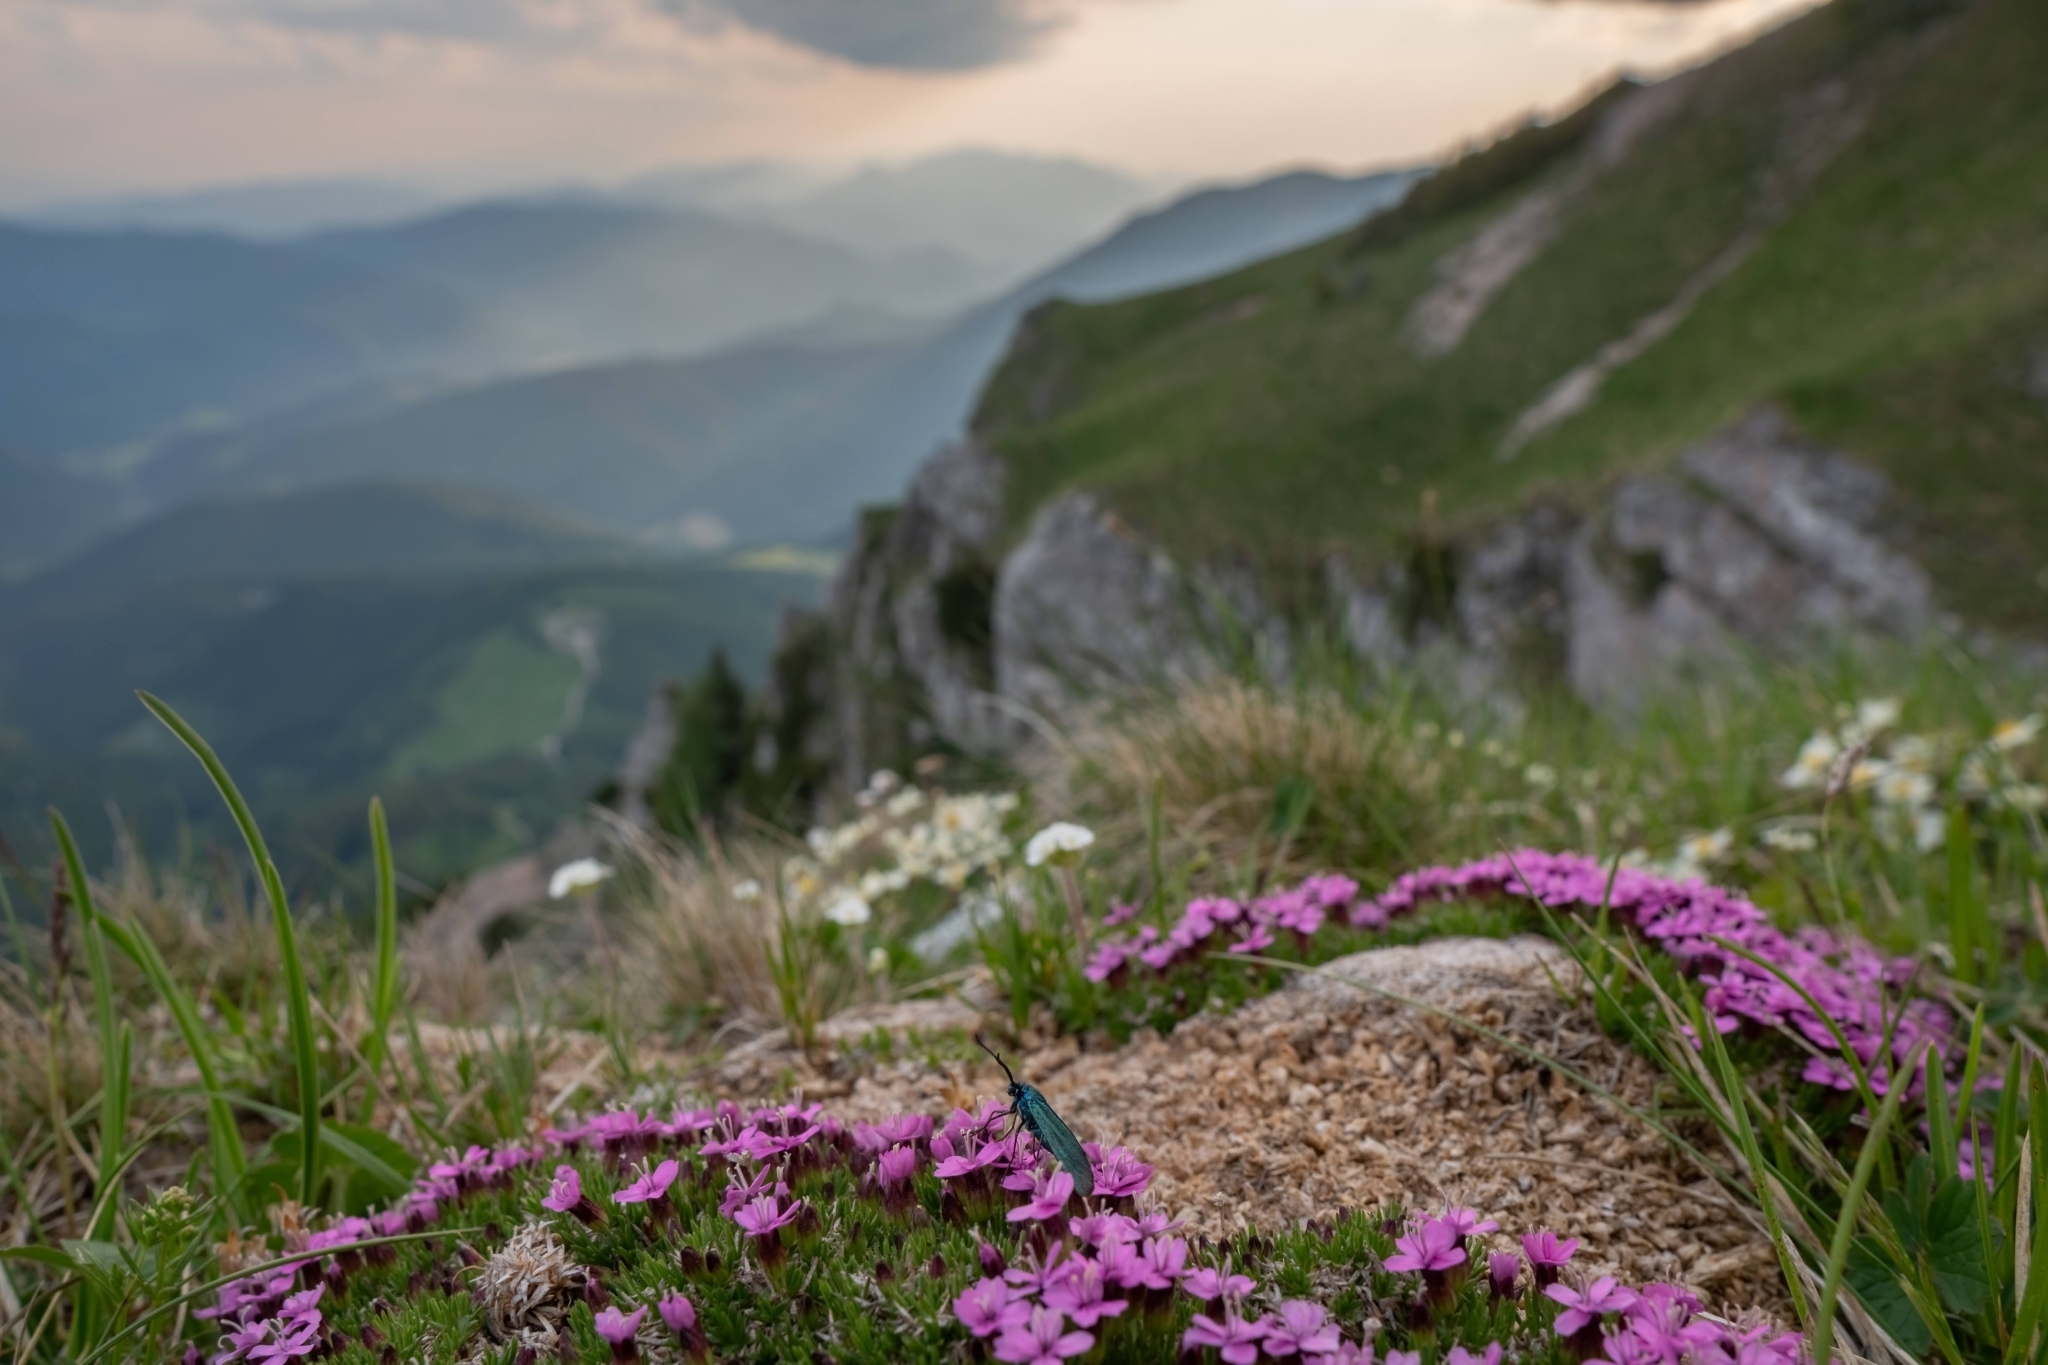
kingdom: Plantae
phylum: Tracheophyta
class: Magnoliopsida
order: Caryophyllales
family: Caryophyllaceae
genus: Silene
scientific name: Silene acaulis
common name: Moss campion
